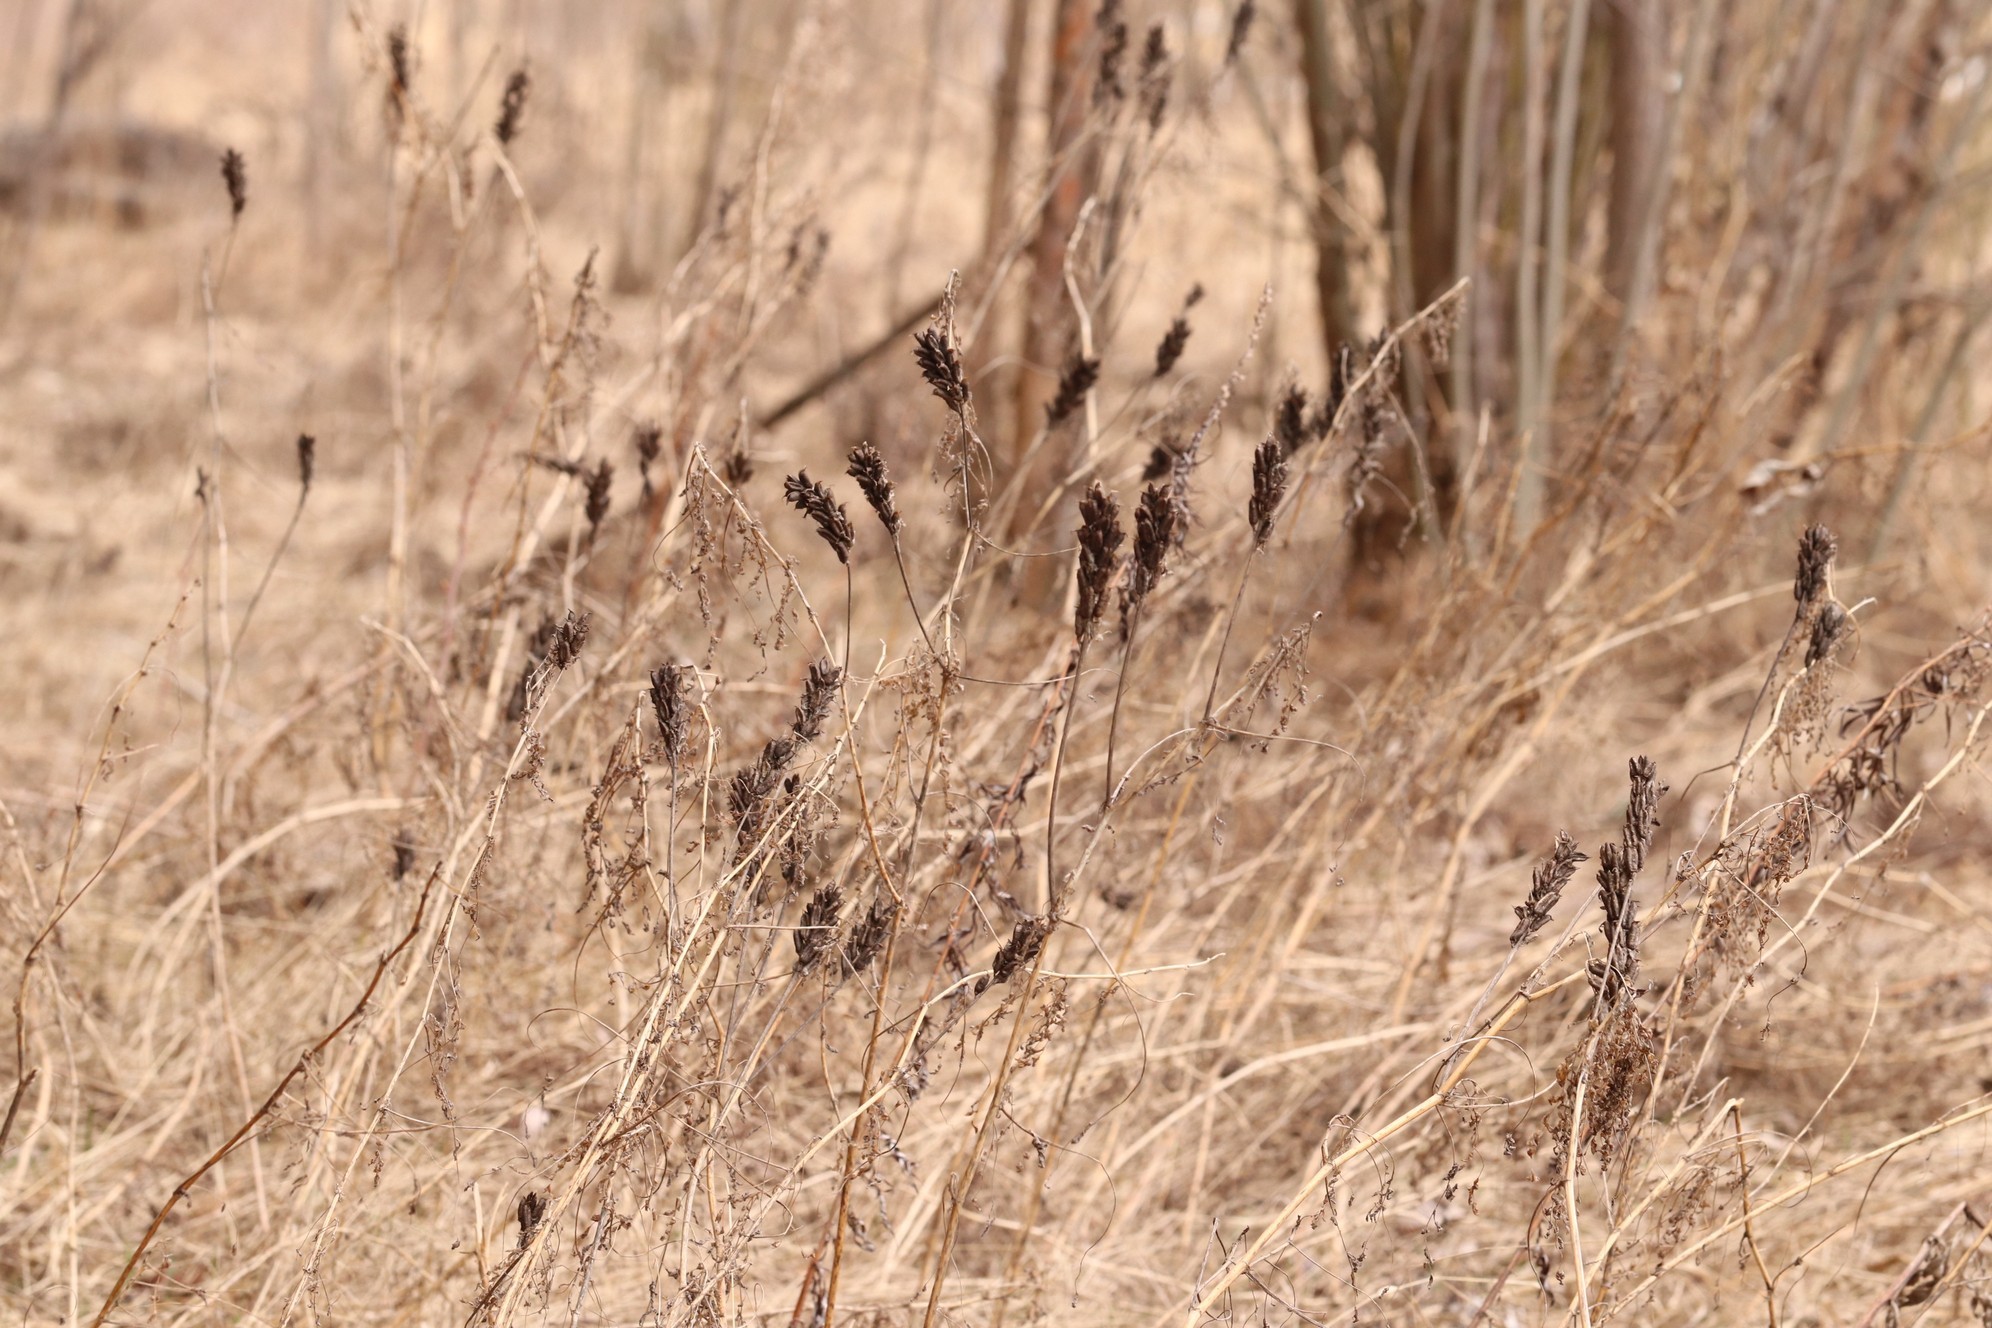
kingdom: Plantae
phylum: Tracheophyta
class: Magnoliopsida
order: Fabales
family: Fabaceae
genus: Astragalus
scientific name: Astragalus uliginosus
